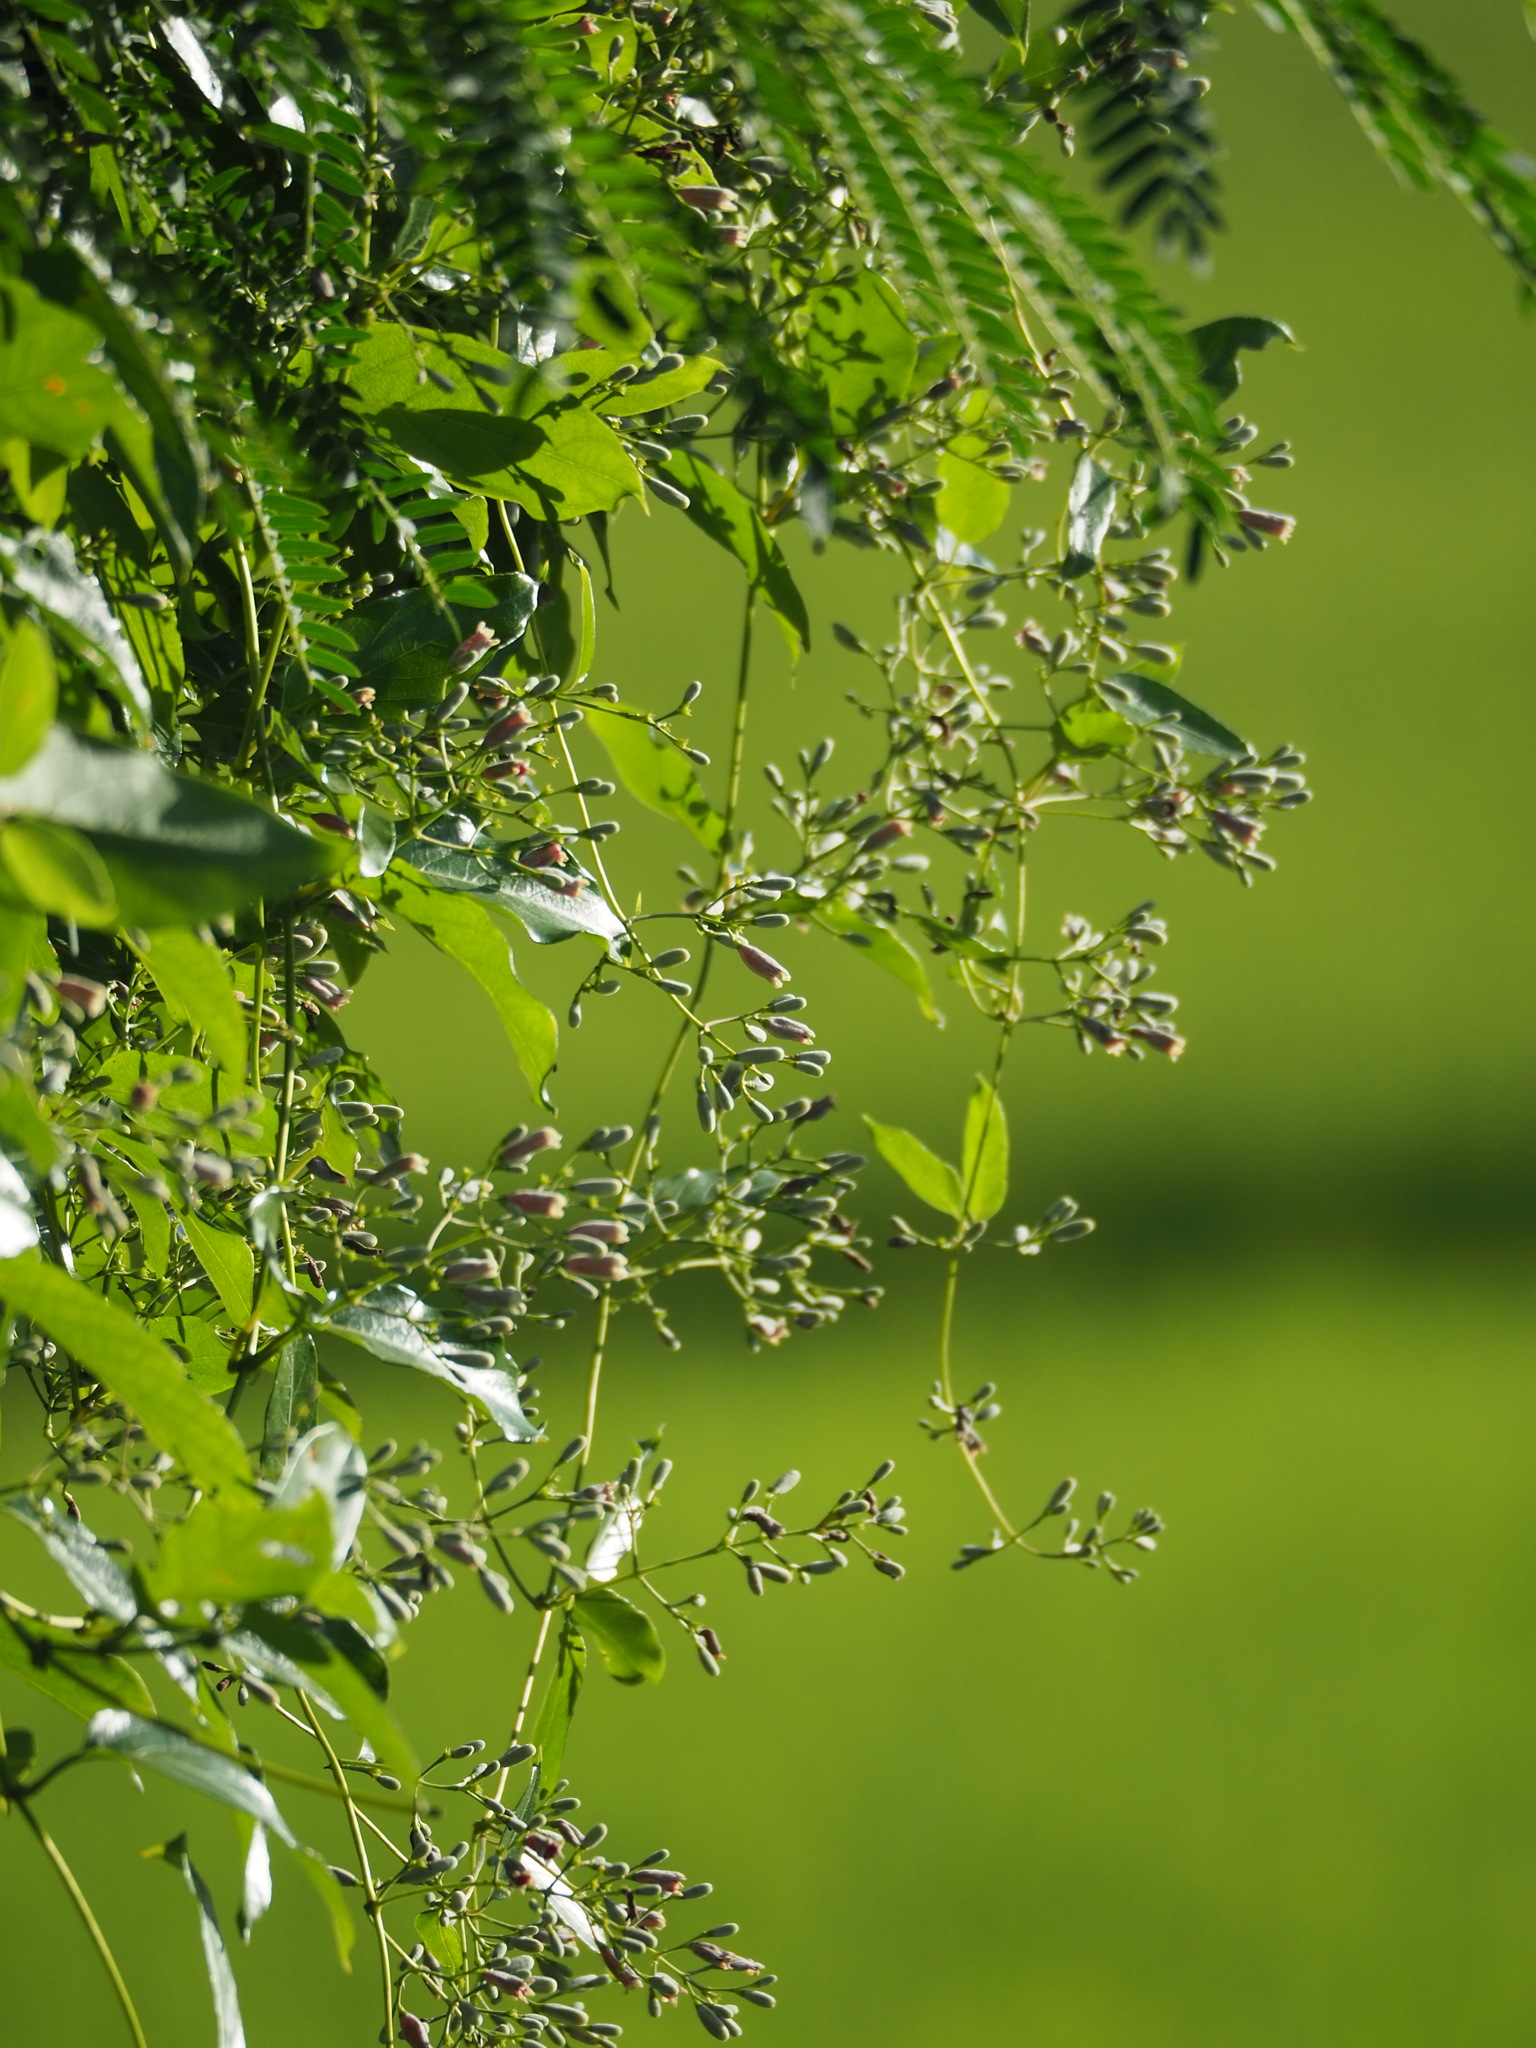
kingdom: Plantae
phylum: Tracheophyta
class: Magnoliopsida
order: Gentianales
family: Rubiaceae
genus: Paederia
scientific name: Paederia foetida
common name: Stinkvine
